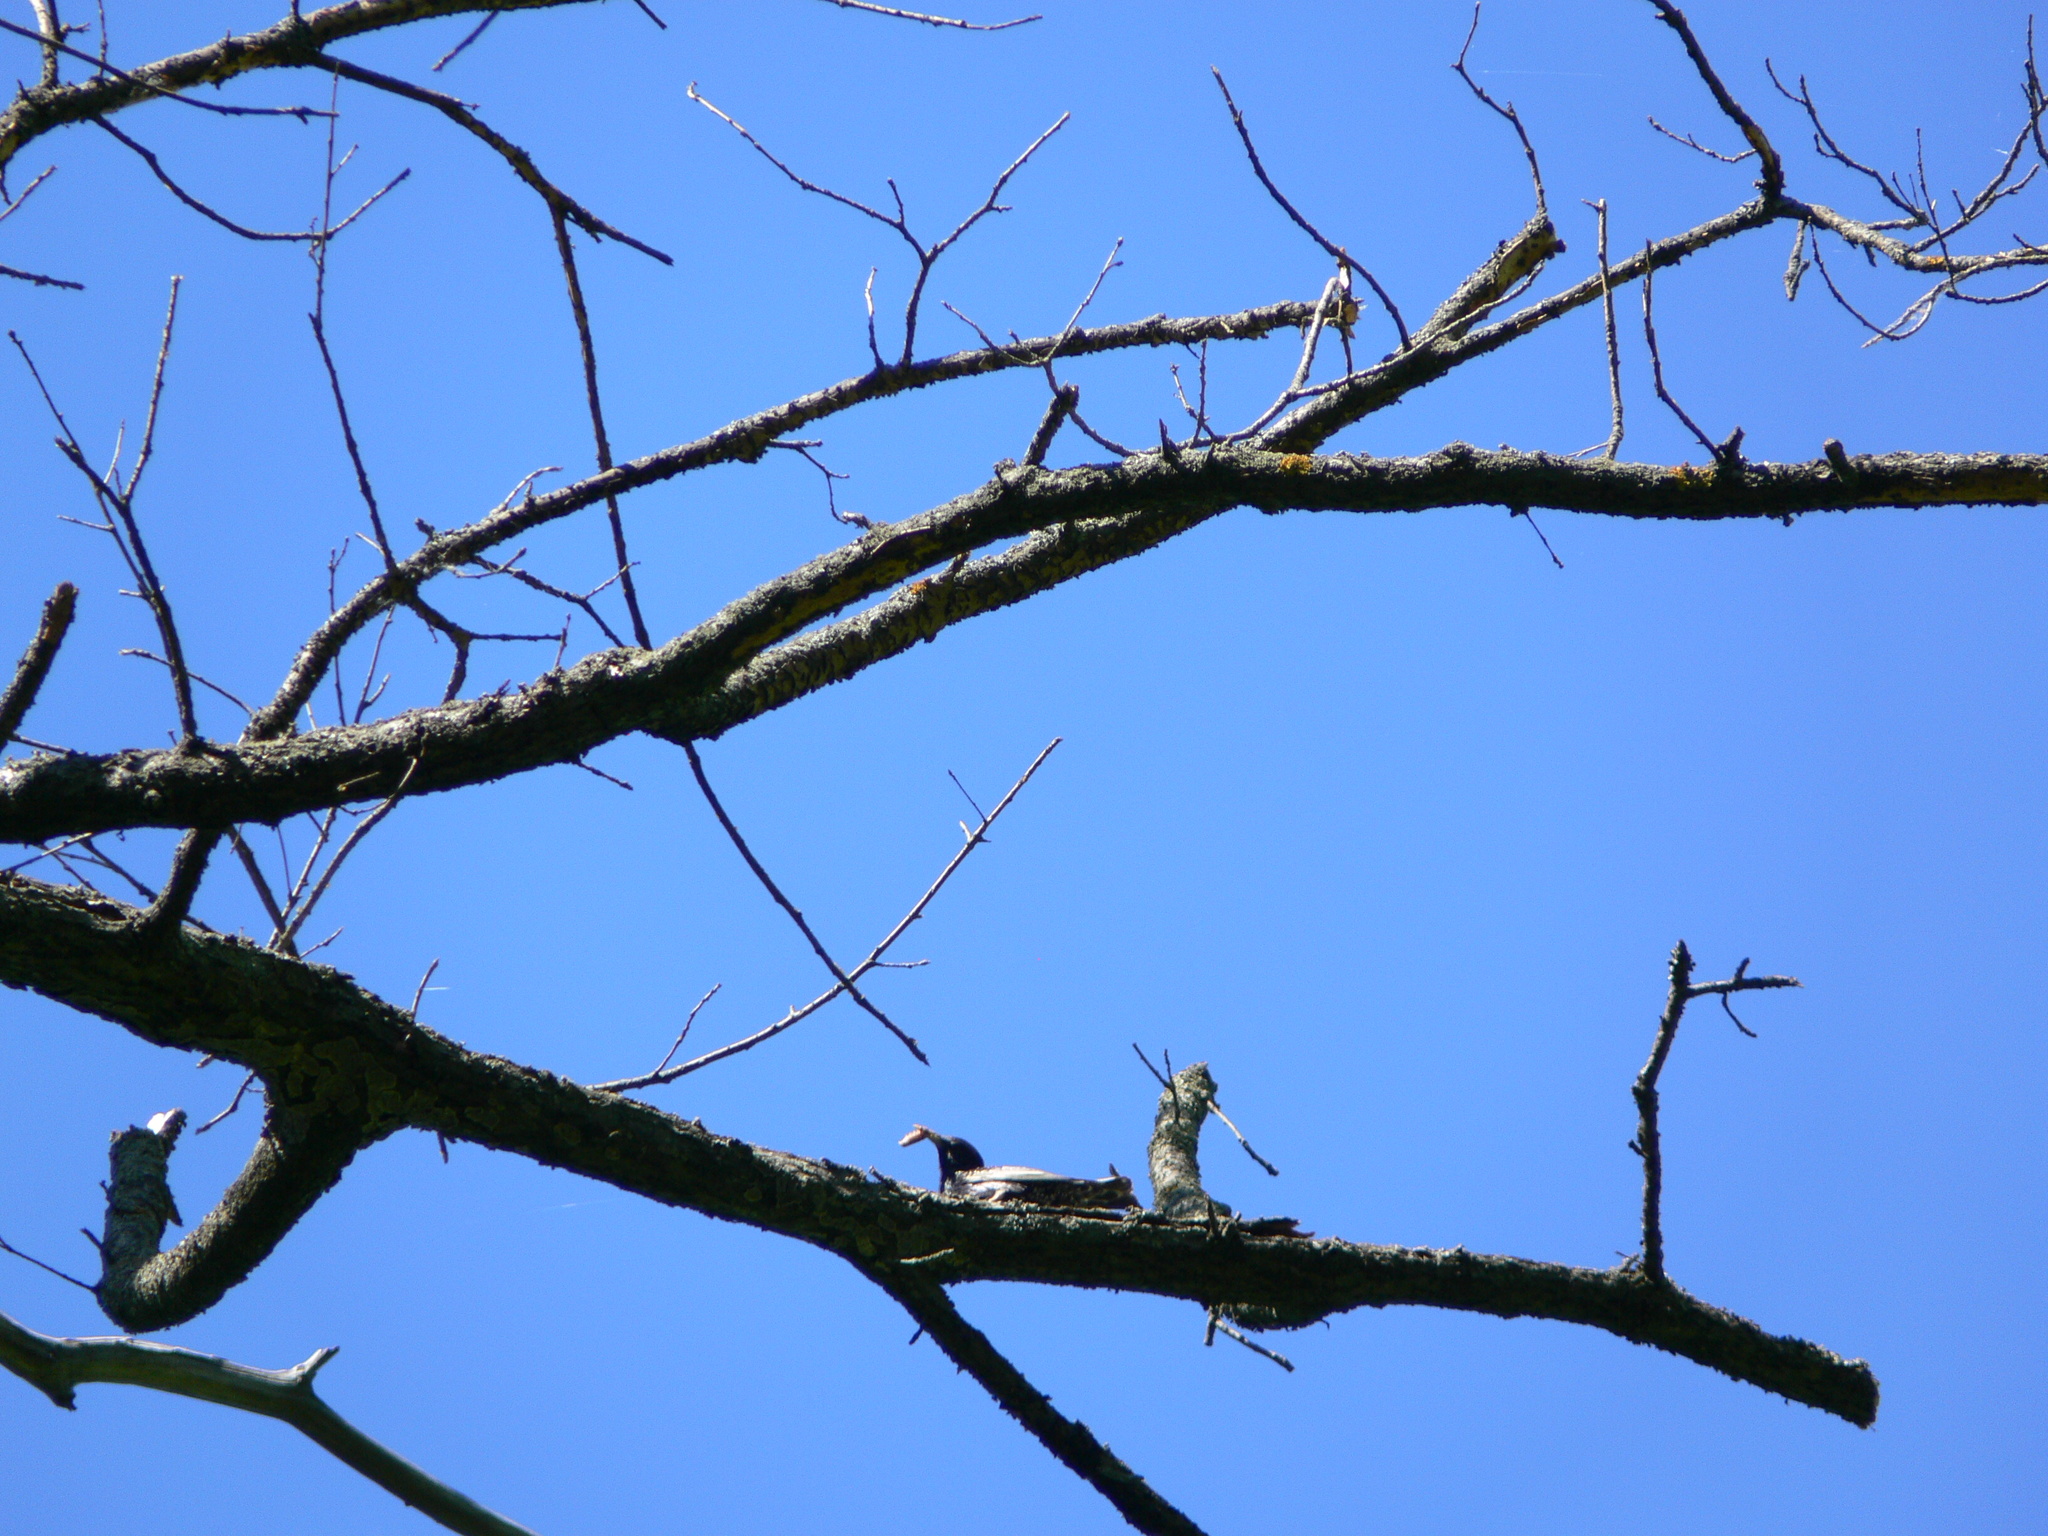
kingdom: Animalia
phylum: Chordata
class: Aves
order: Passeriformes
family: Sturnidae
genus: Sturnus
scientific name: Sturnus vulgaris
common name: Common starling
